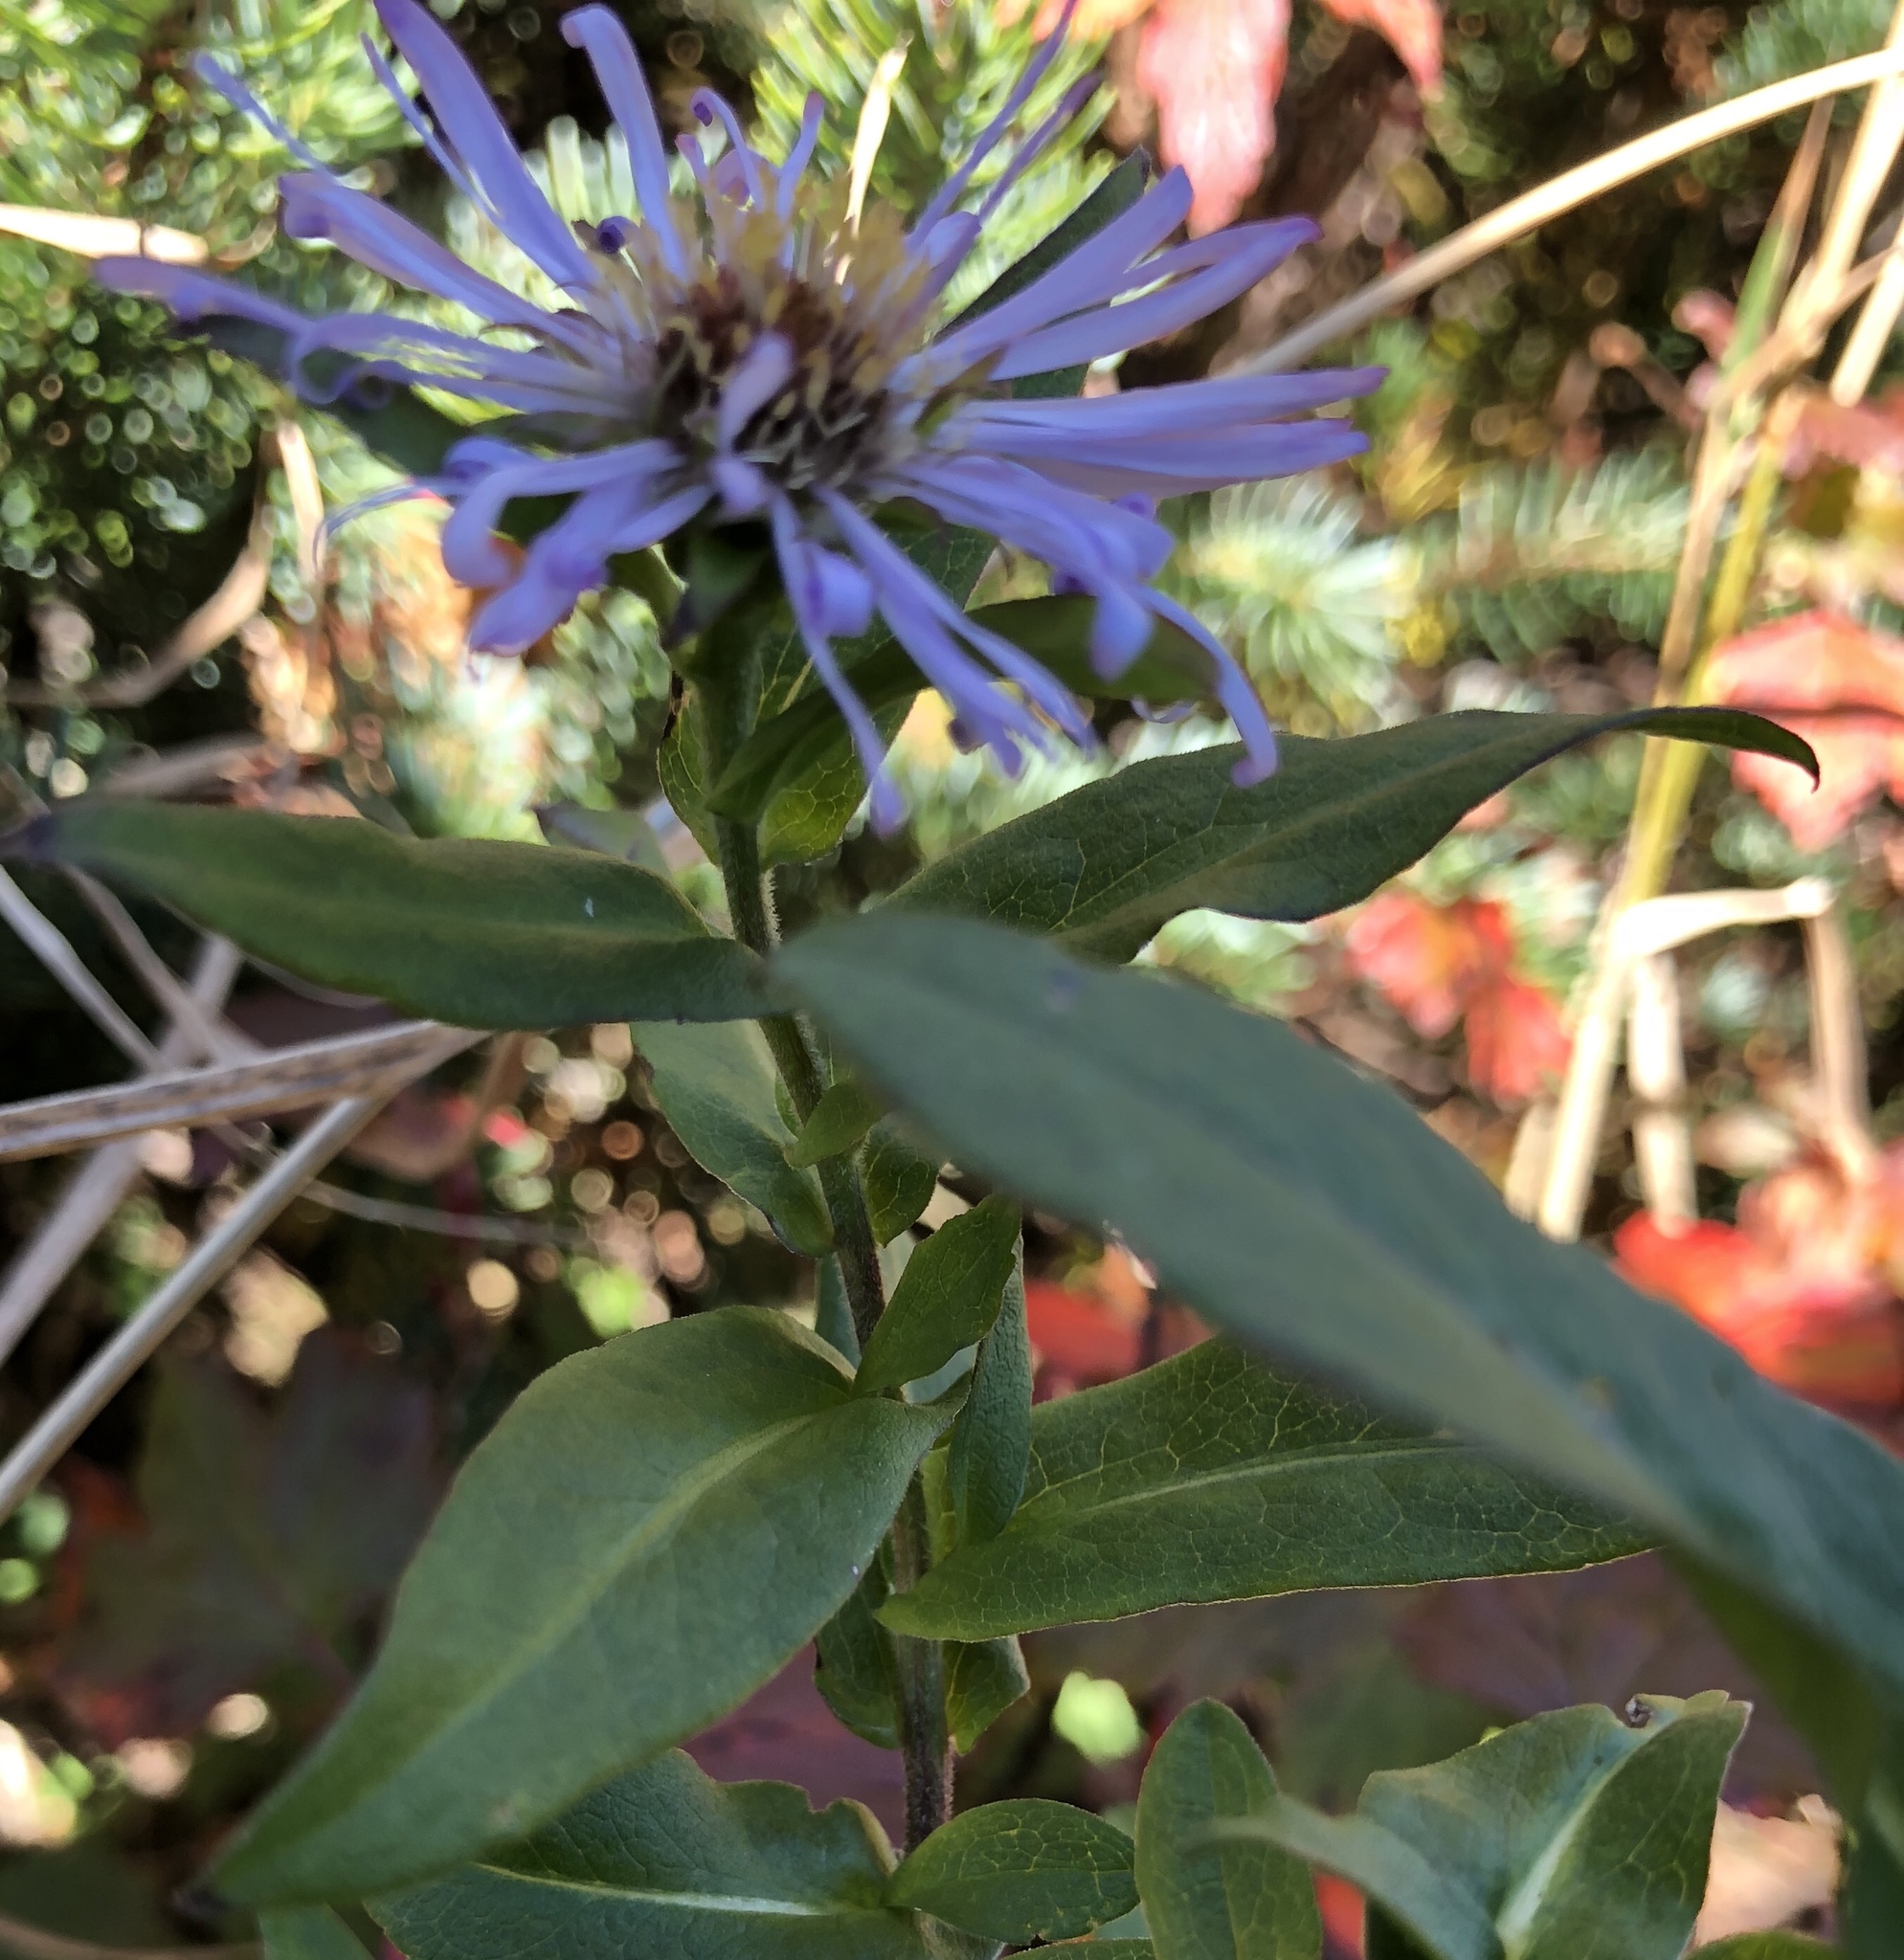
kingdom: Plantae
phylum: Tracheophyta
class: Magnoliopsida
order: Asterales
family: Asteraceae
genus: Symphyotrichum
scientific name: Symphyotrichum puniceum
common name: Bog aster
